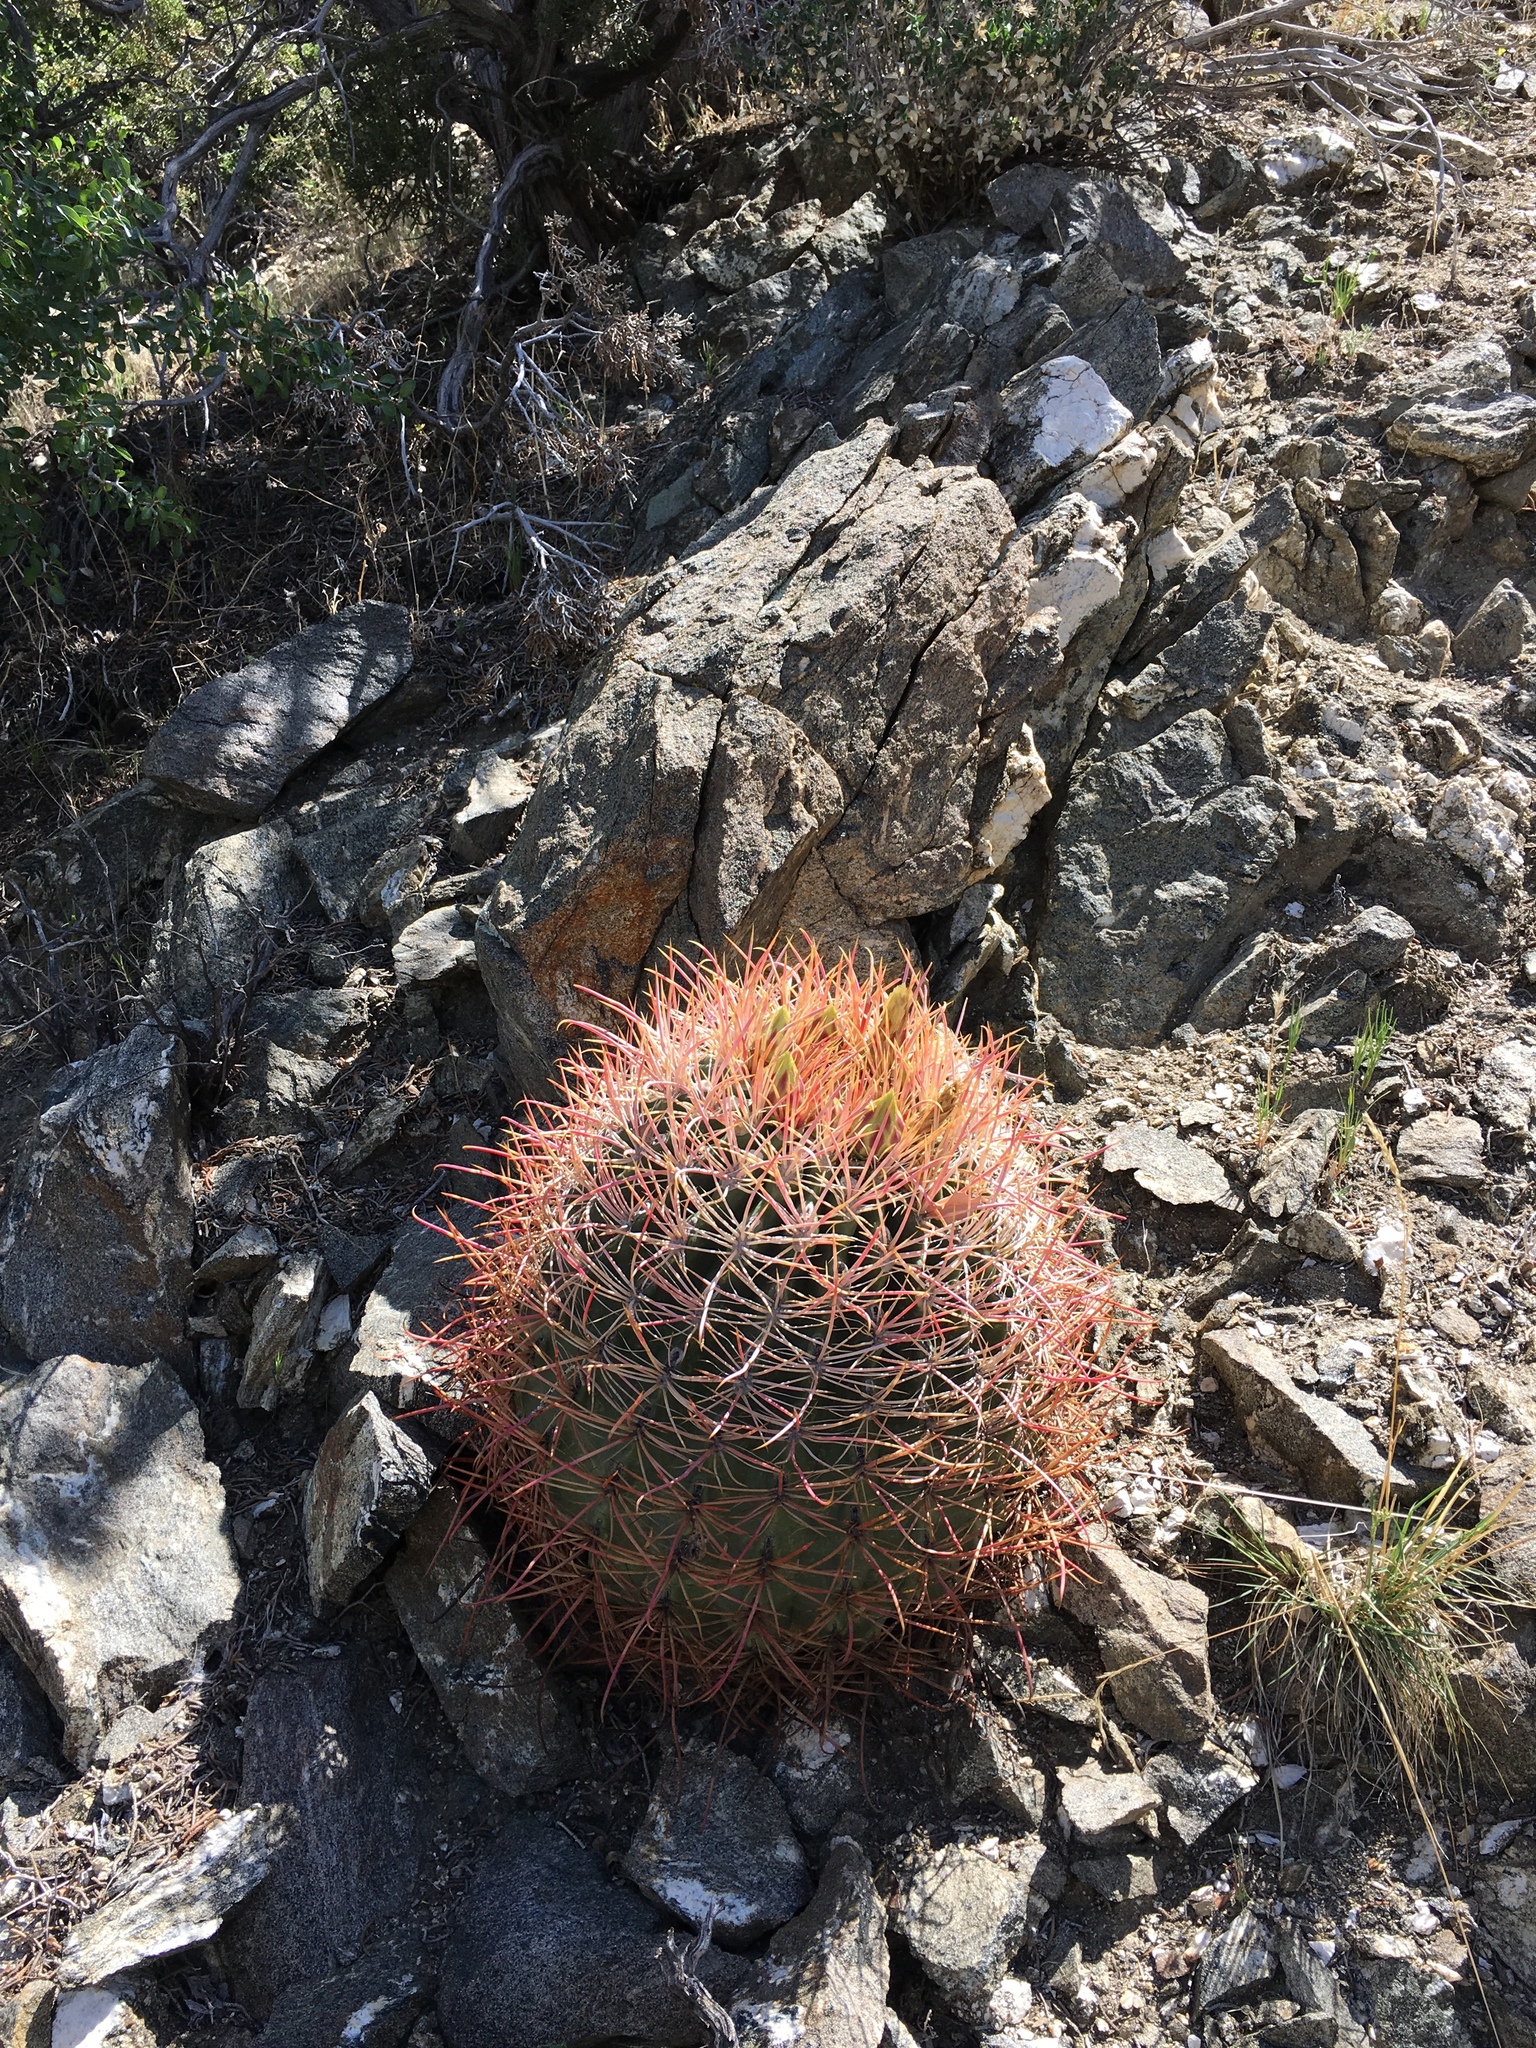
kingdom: Plantae
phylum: Tracheophyta
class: Magnoliopsida
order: Caryophyllales
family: Cactaceae
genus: Ferocactus
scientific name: Ferocactus cylindraceus
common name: California barrel cactus
